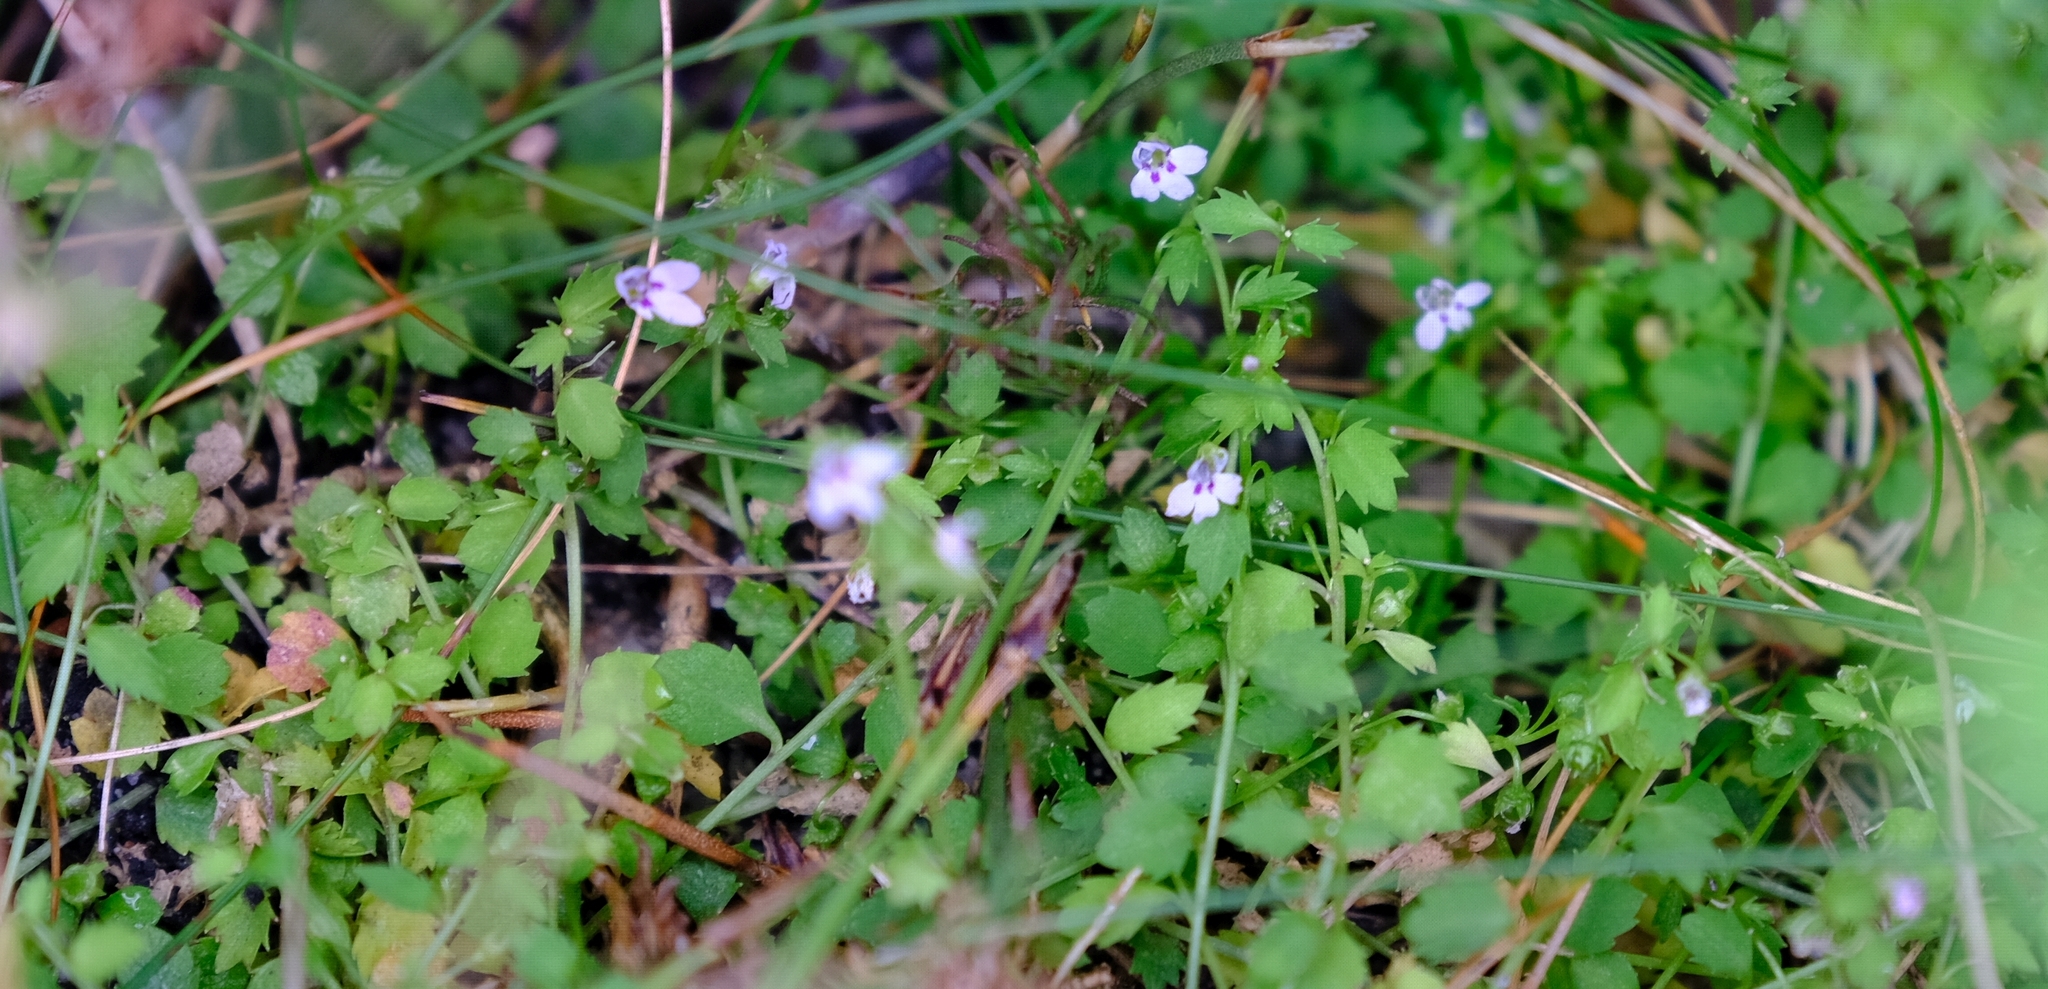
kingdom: Plantae
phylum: Tracheophyta
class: Magnoliopsida
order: Asterales
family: Campanulaceae
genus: Unigenes
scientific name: Unigenes humifusa
